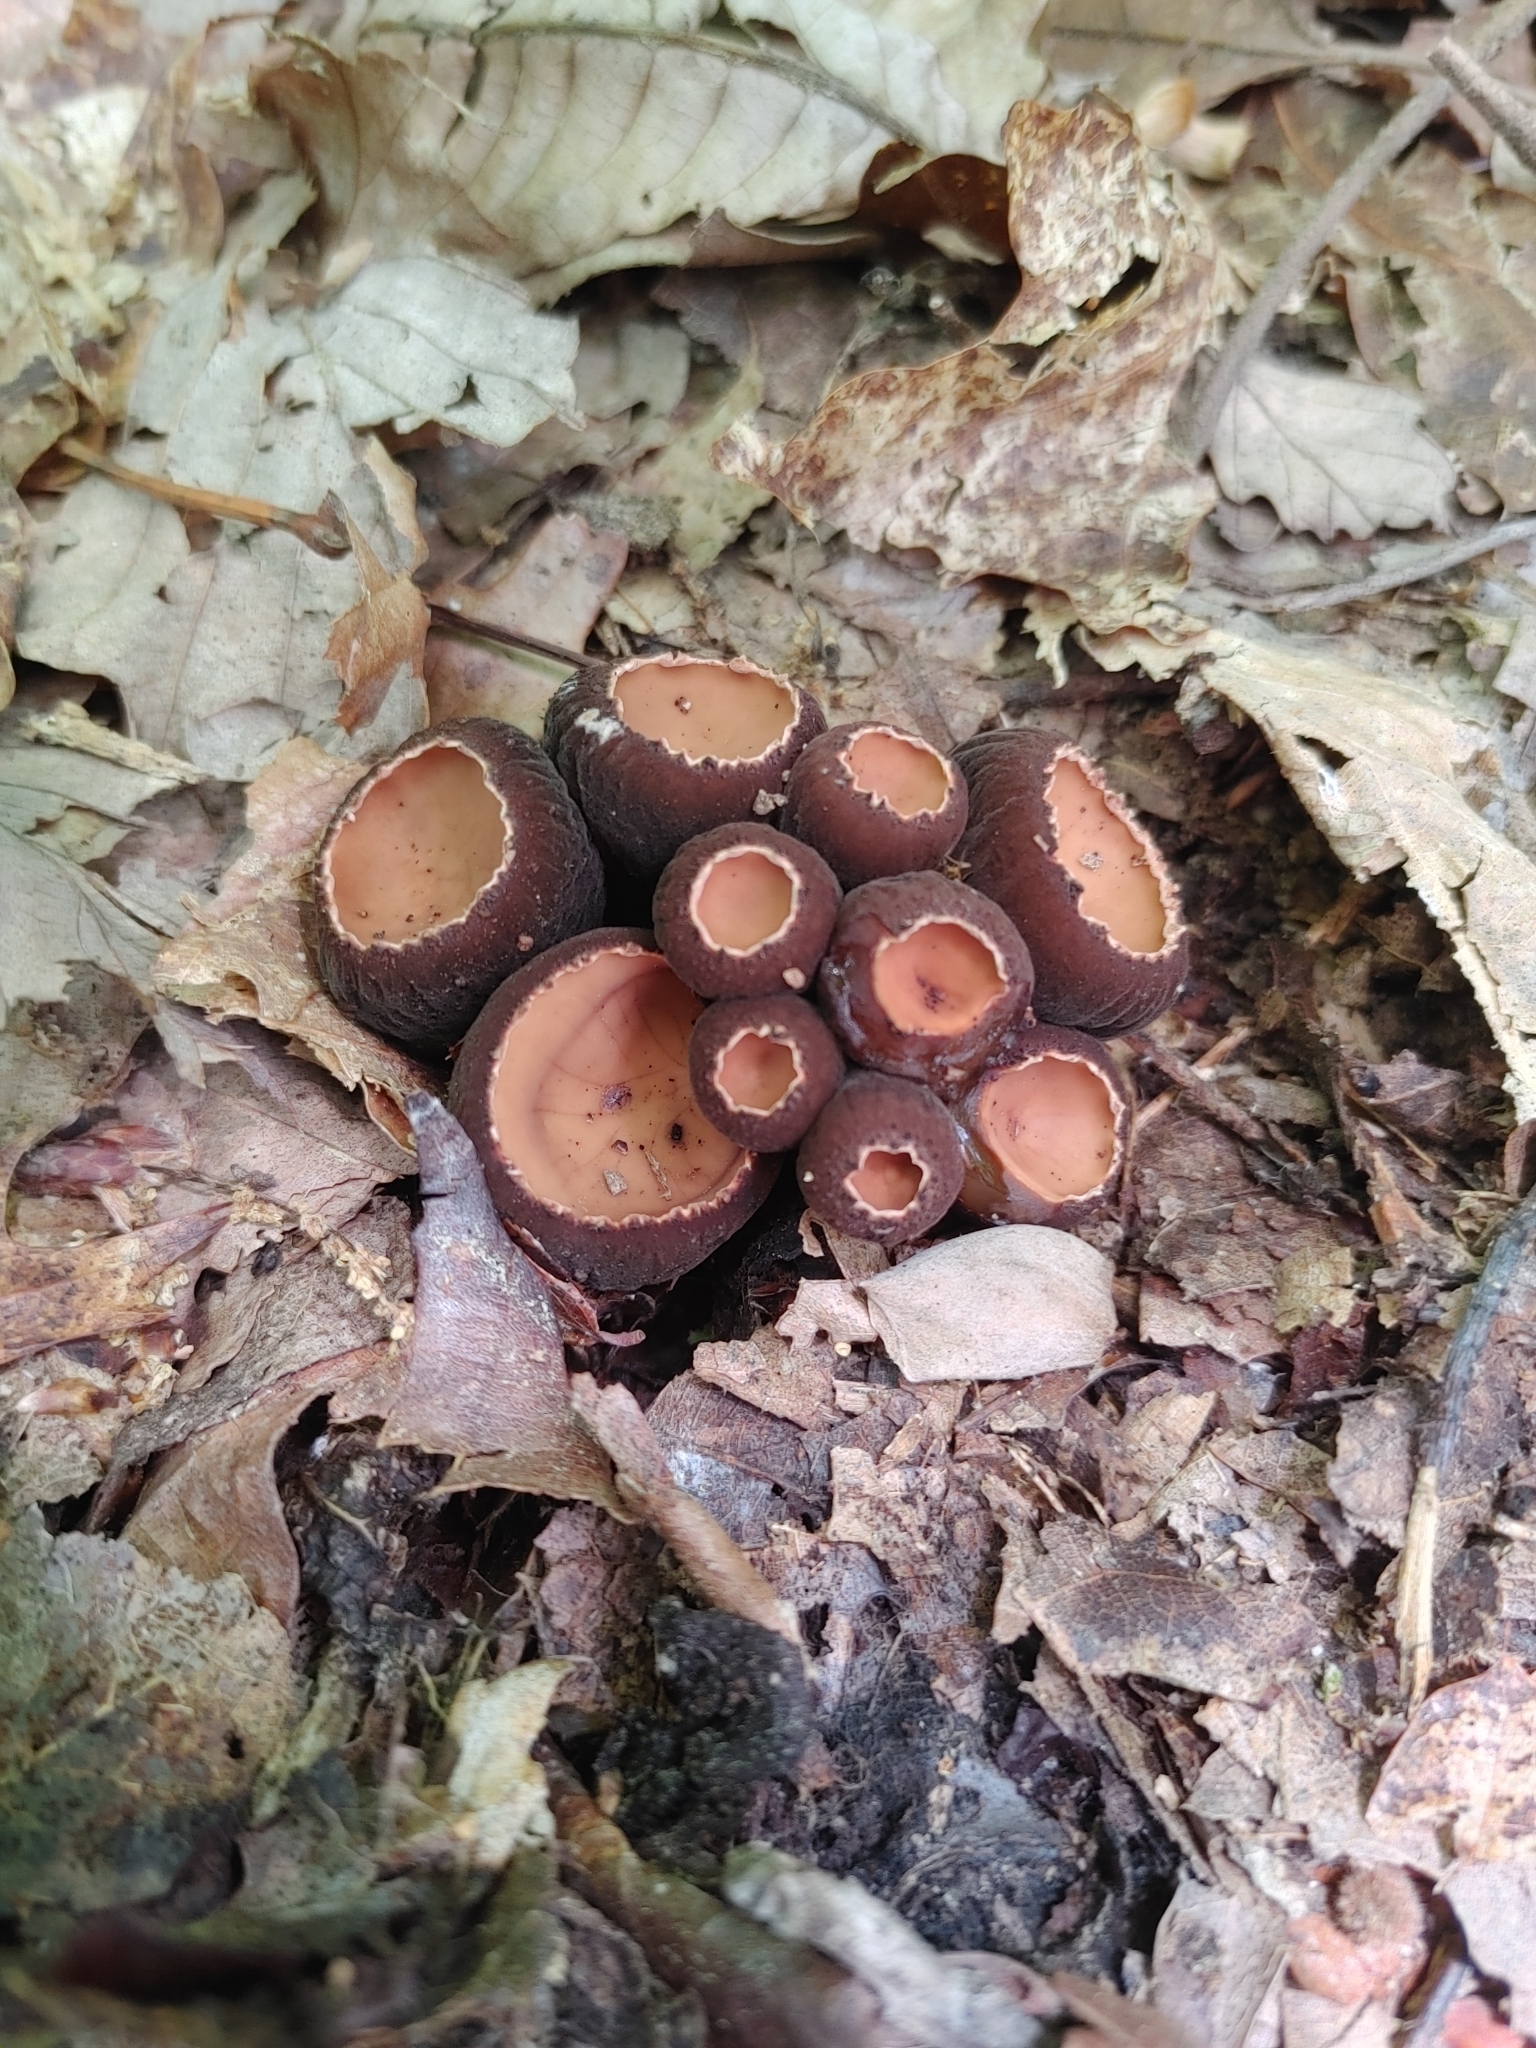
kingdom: Fungi
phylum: Ascomycota
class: Pezizomycetes
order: Pezizales
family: Sarcosomataceae
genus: Galiella
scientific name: Galiella rufa
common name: Hairy rubber cup
